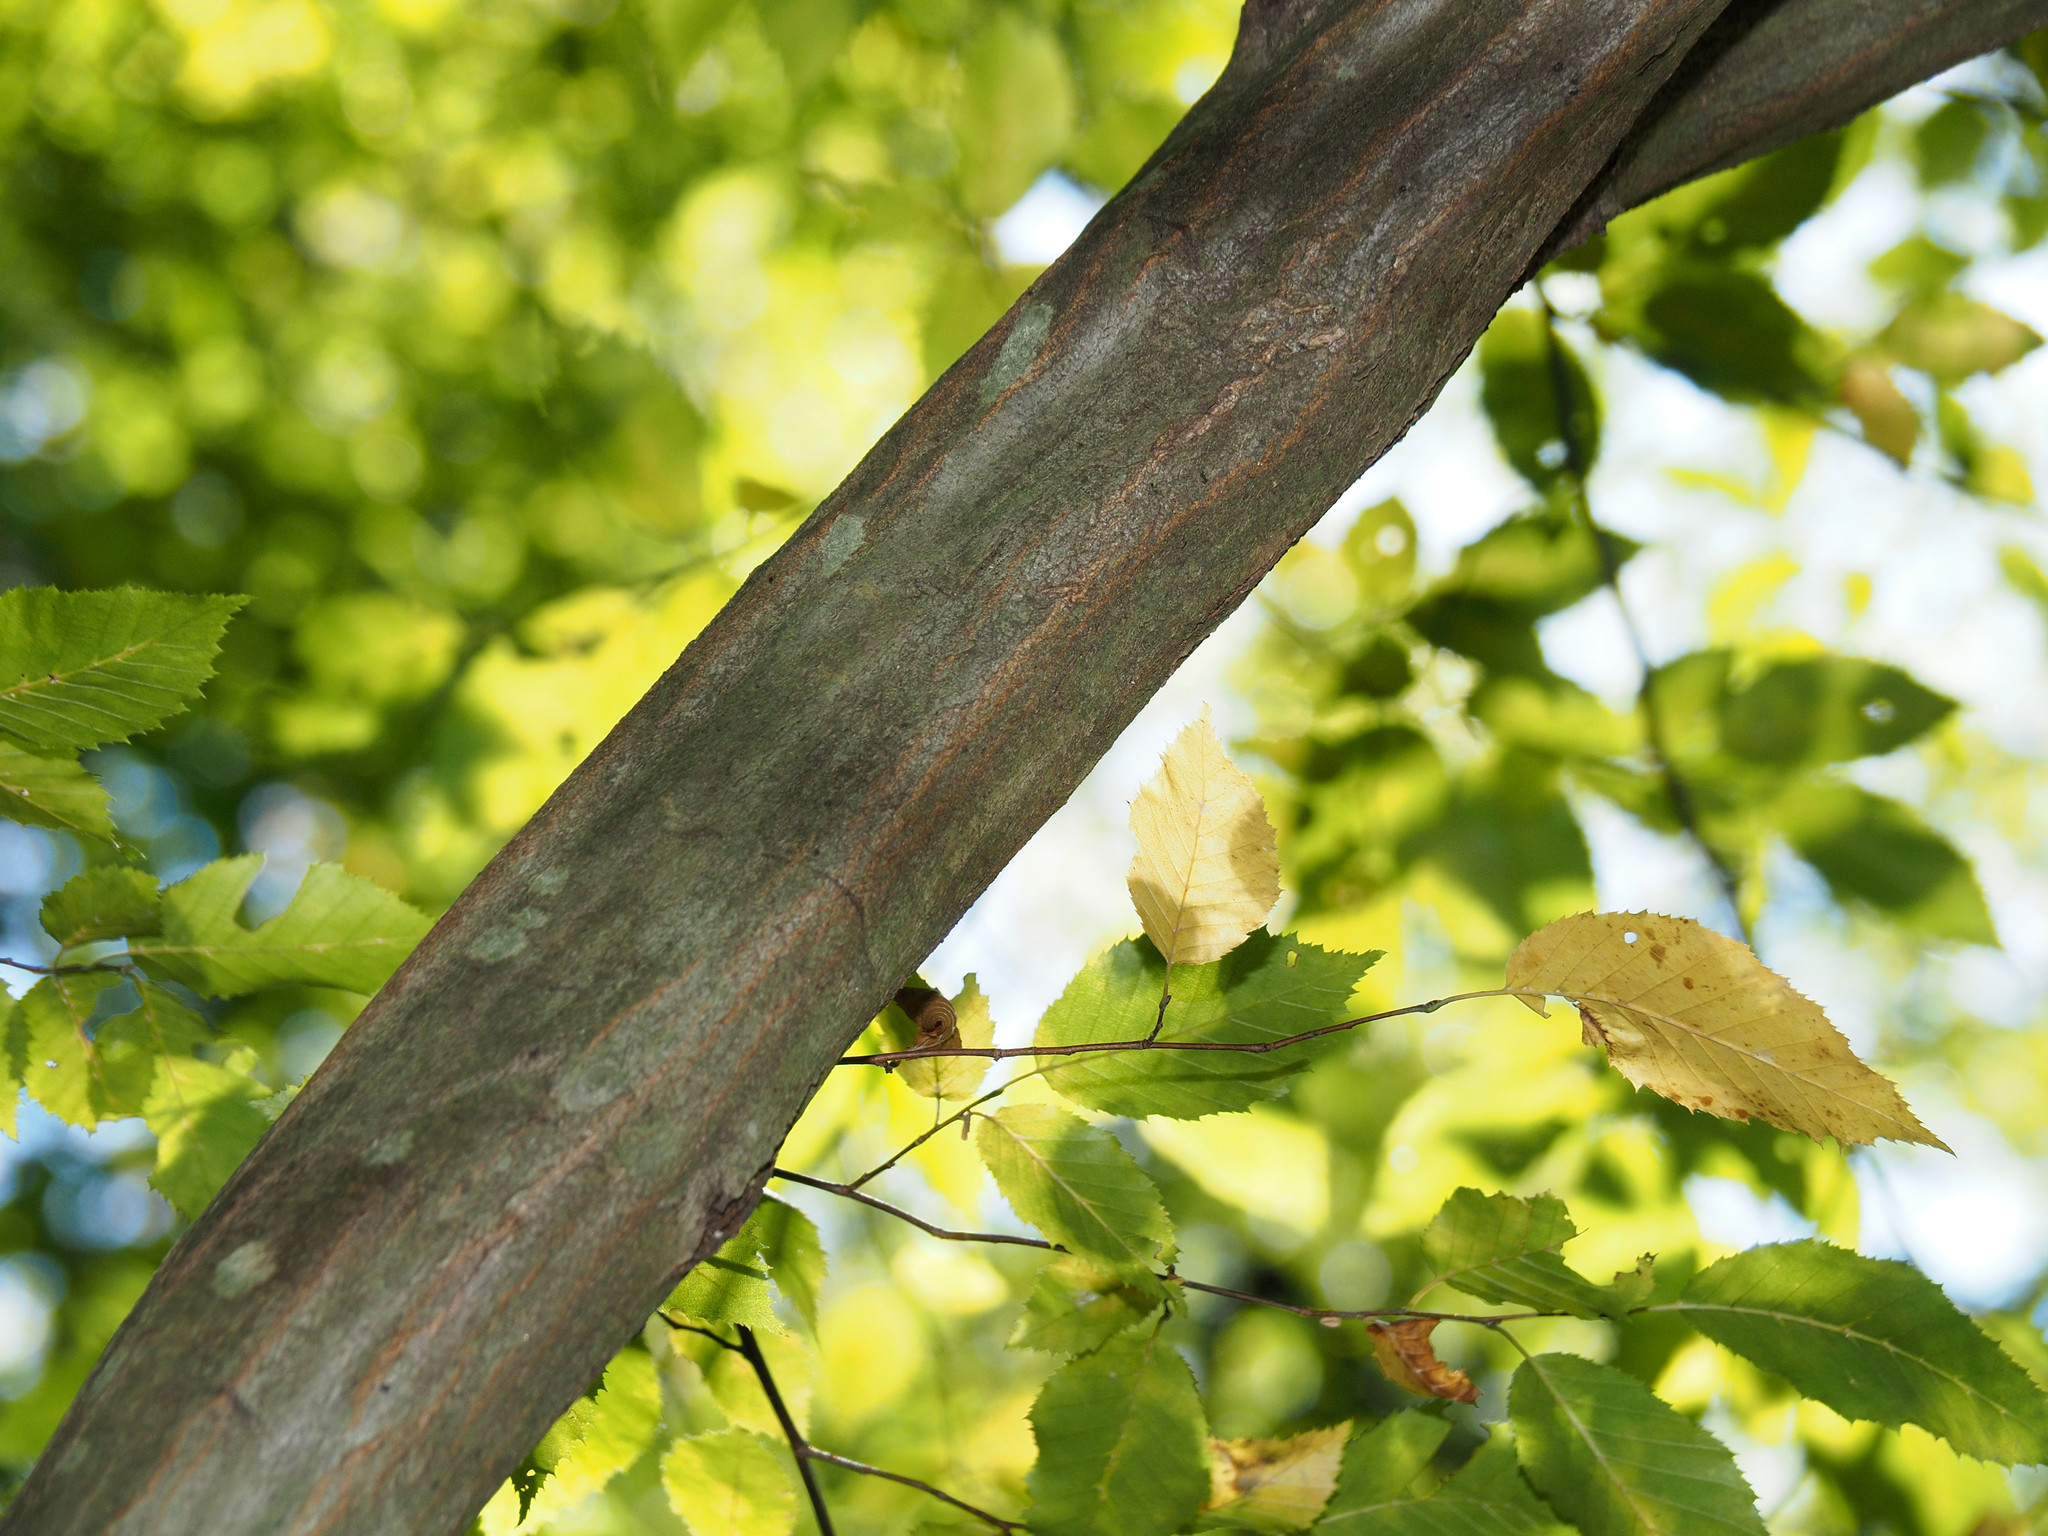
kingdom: Plantae
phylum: Tracheophyta
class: Magnoliopsida
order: Fagales
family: Betulaceae
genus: Carpinus
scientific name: Carpinus caroliniana
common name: American hornbeam
